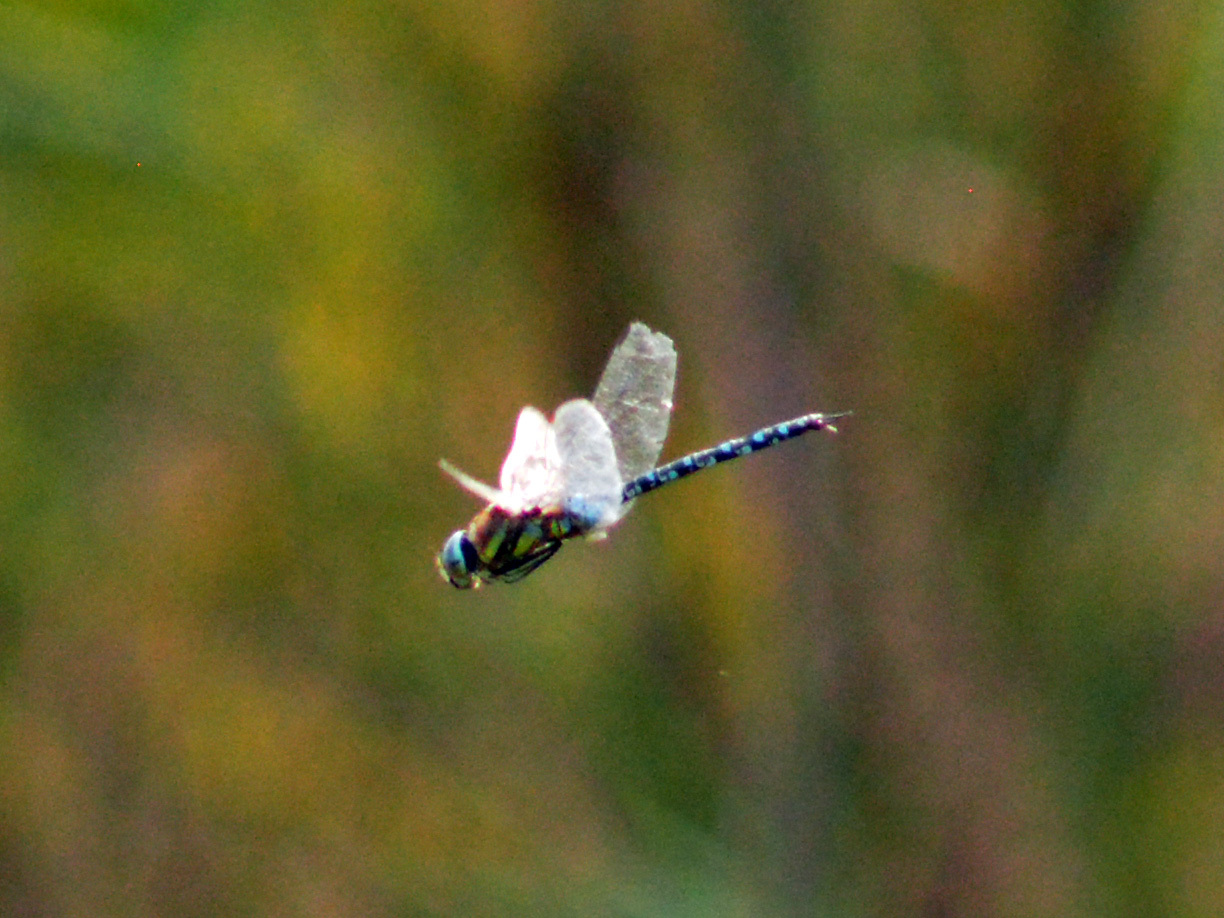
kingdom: Animalia
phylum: Arthropoda
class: Insecta
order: Odonata
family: Aeshnidae
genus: Aeshna
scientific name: Aeshna mixta
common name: Migrant hawker
